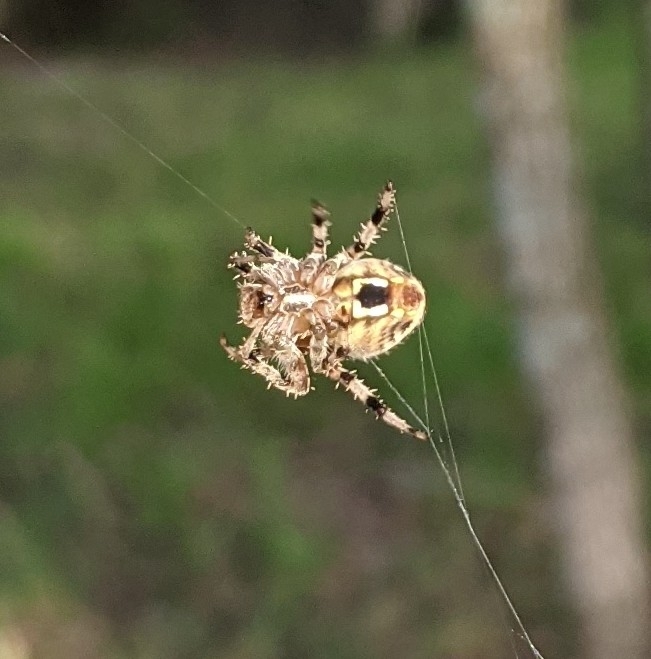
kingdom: Animalia
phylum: Arthropoda
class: Arachnida
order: Araneae
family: Araneidae
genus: Neoscona
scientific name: Neoscona crucifera
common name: Spotted orbweaver
